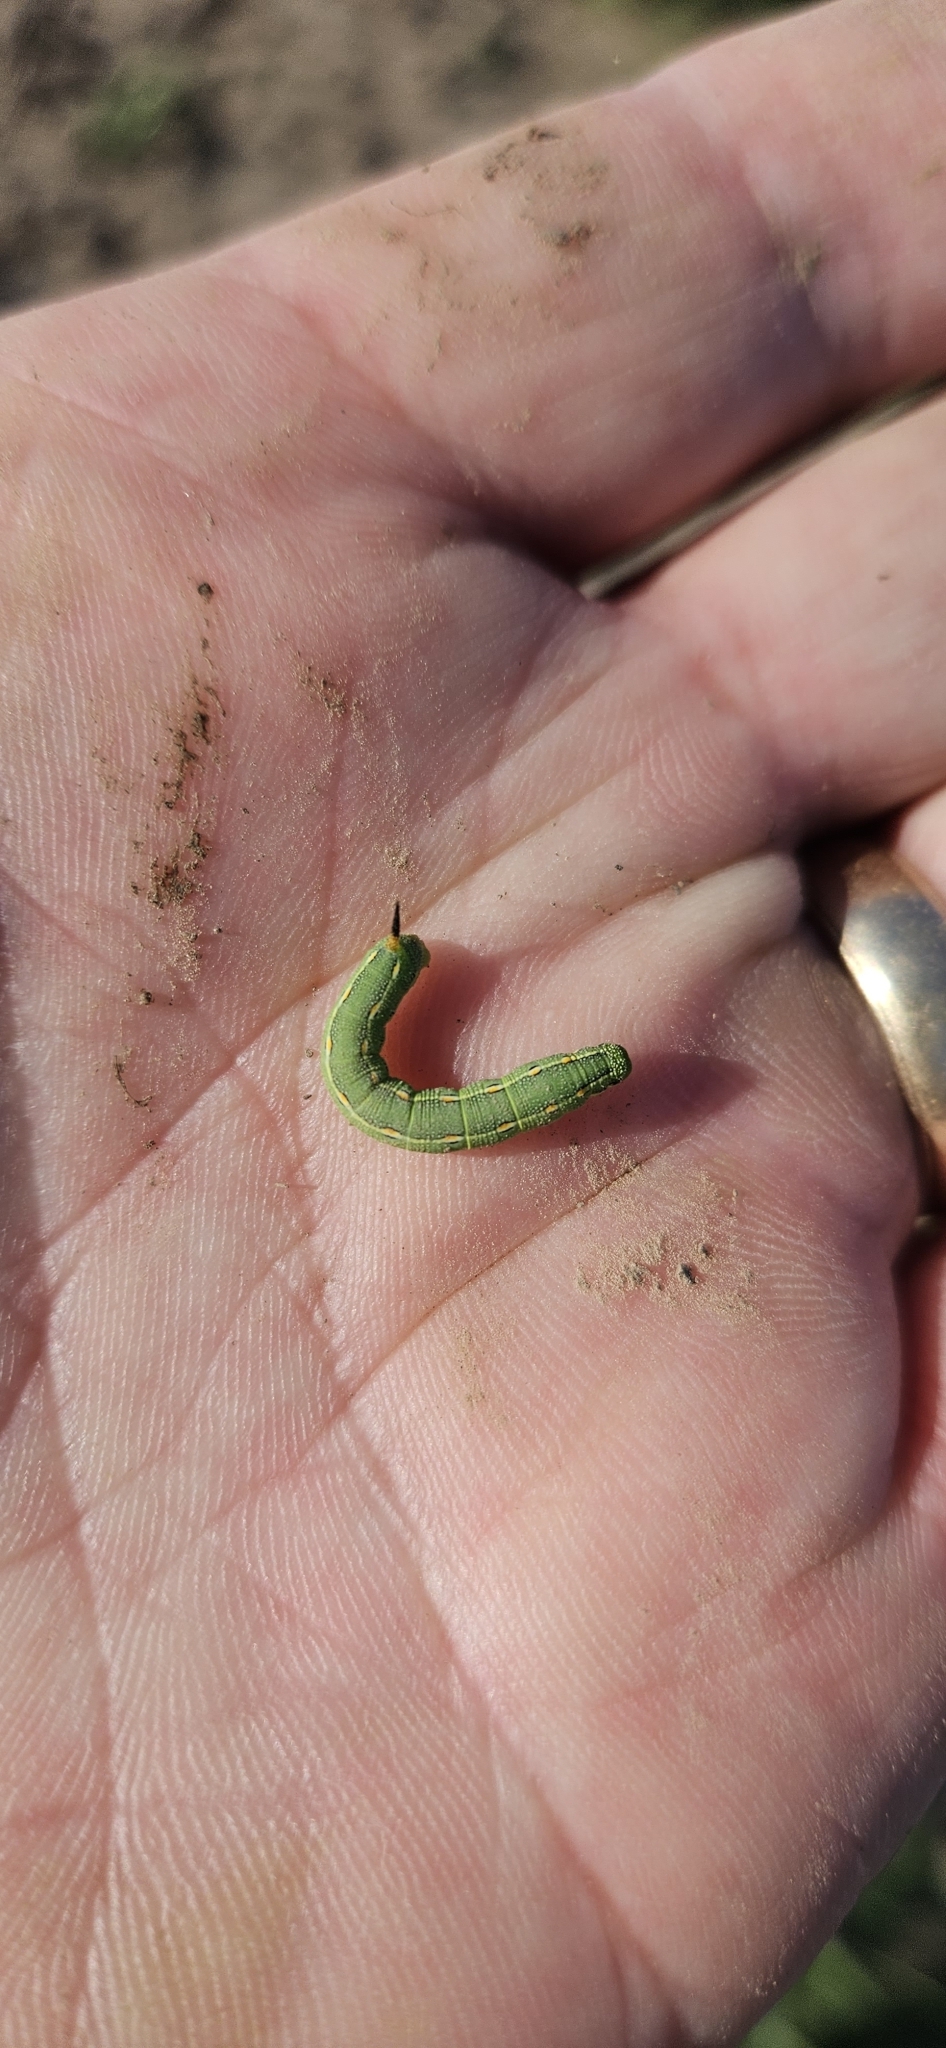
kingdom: Animalia
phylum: Arthropoda
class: Insecta
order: Lepidoptera
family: Sphingidae
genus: Hyles
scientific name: Hyles lineata
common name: White-lined sphinx
